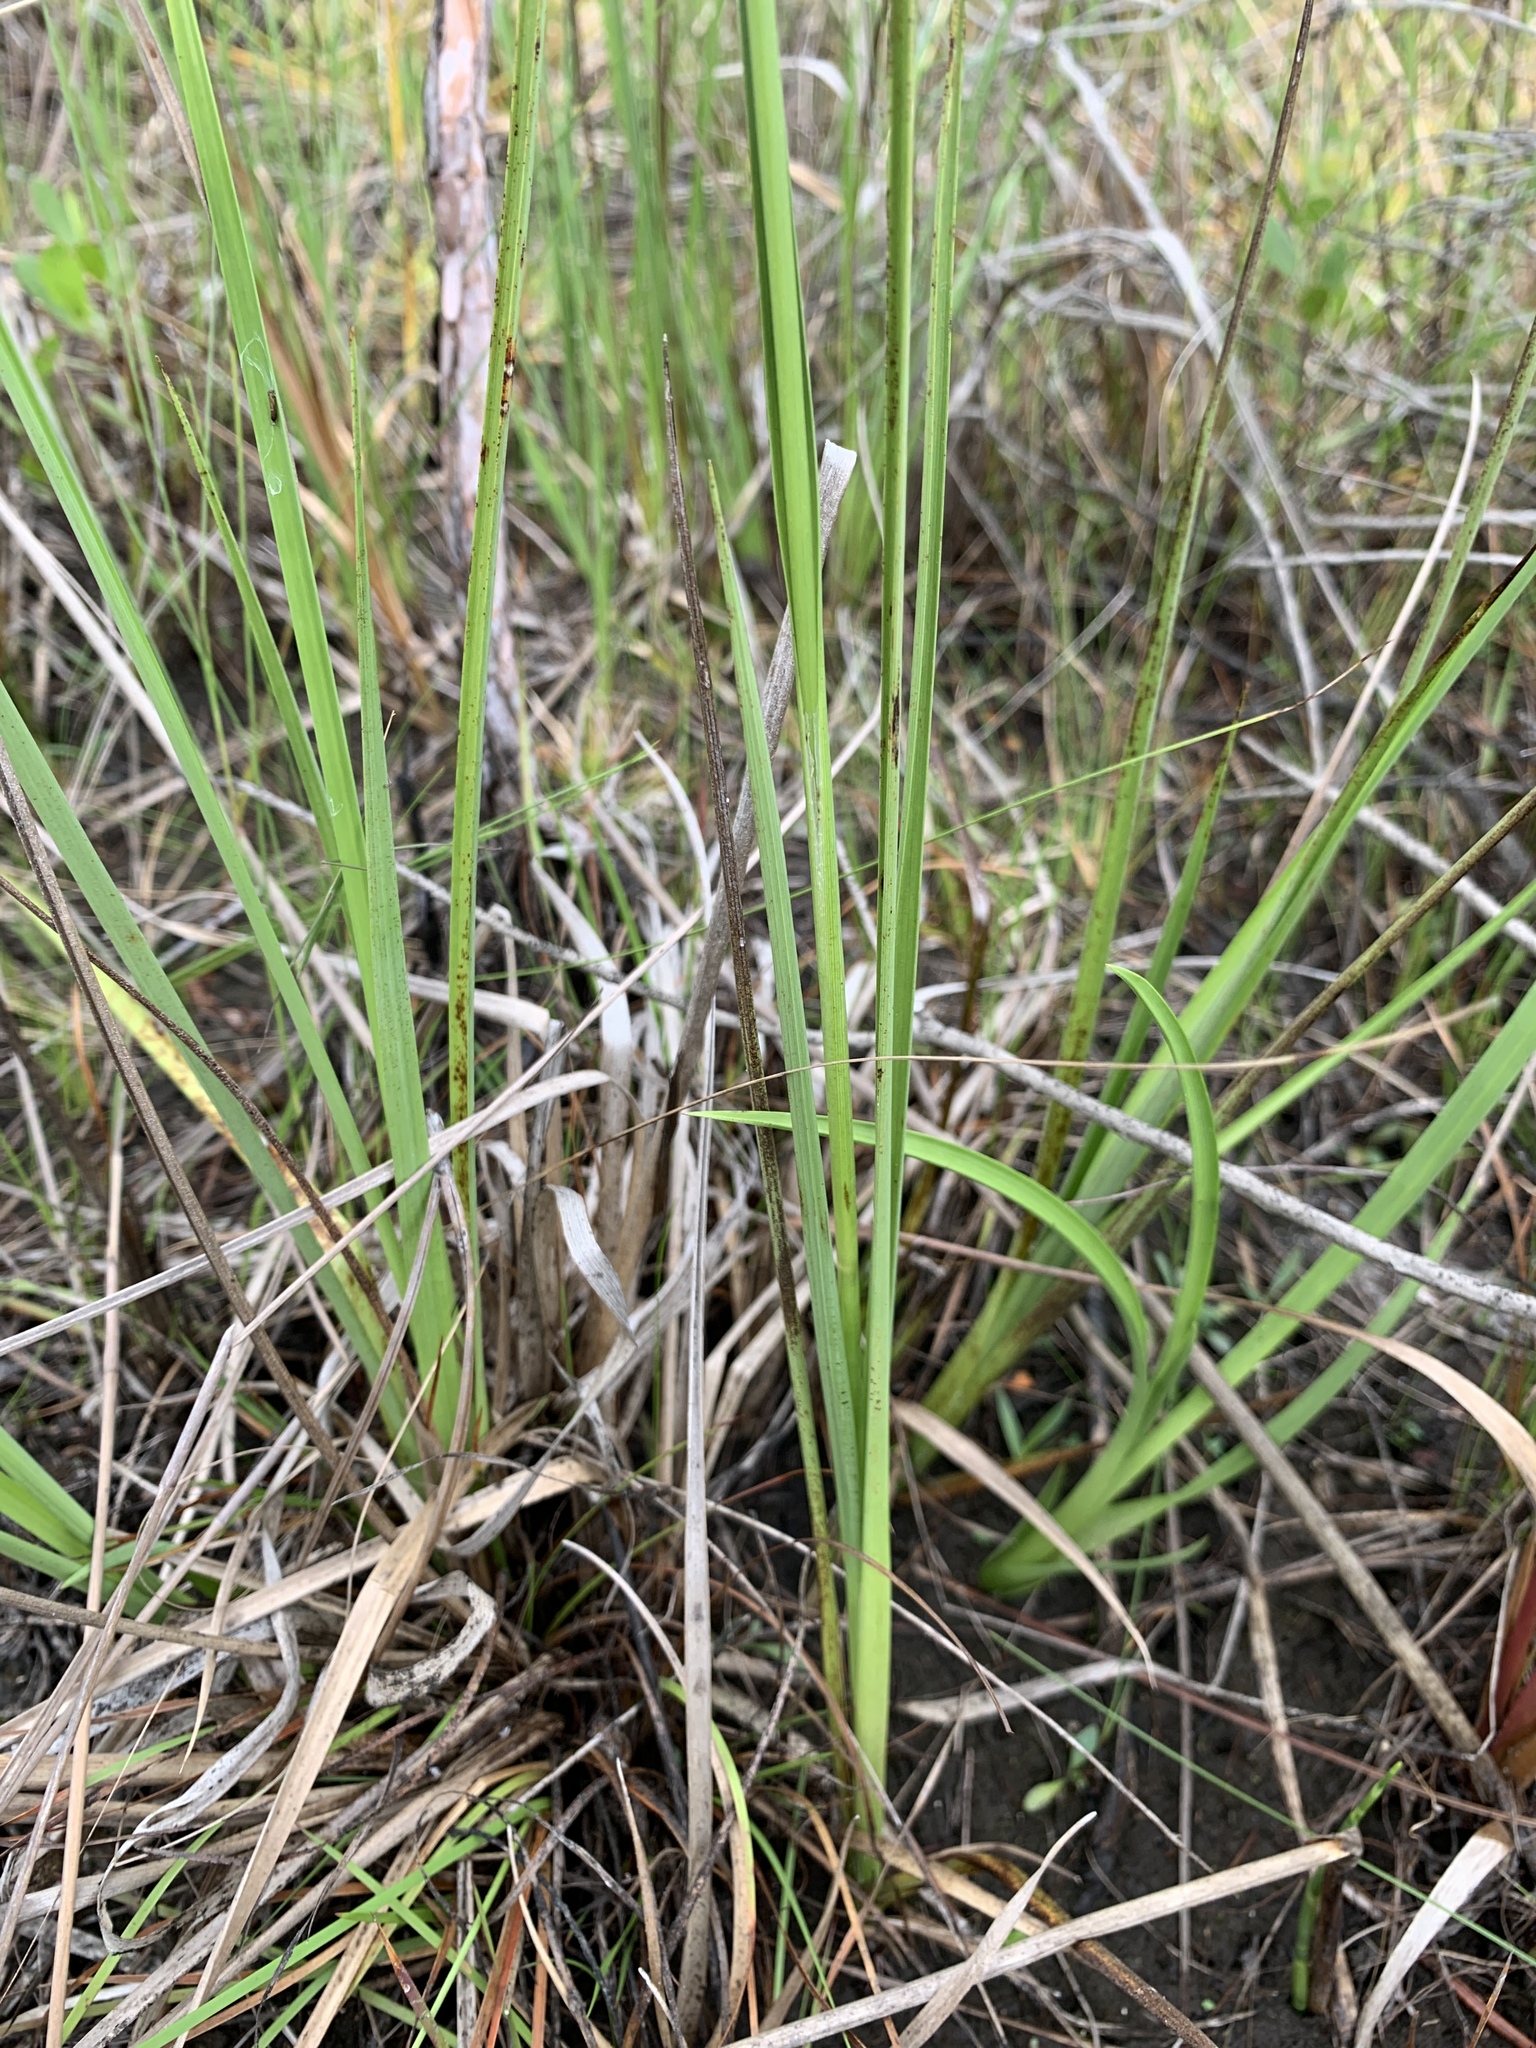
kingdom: Plantae
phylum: Tracheophyta
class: Liliopsida
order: Poales
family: Cyperaceae
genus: Rhynchospora
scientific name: Rhynchospora latifolia
